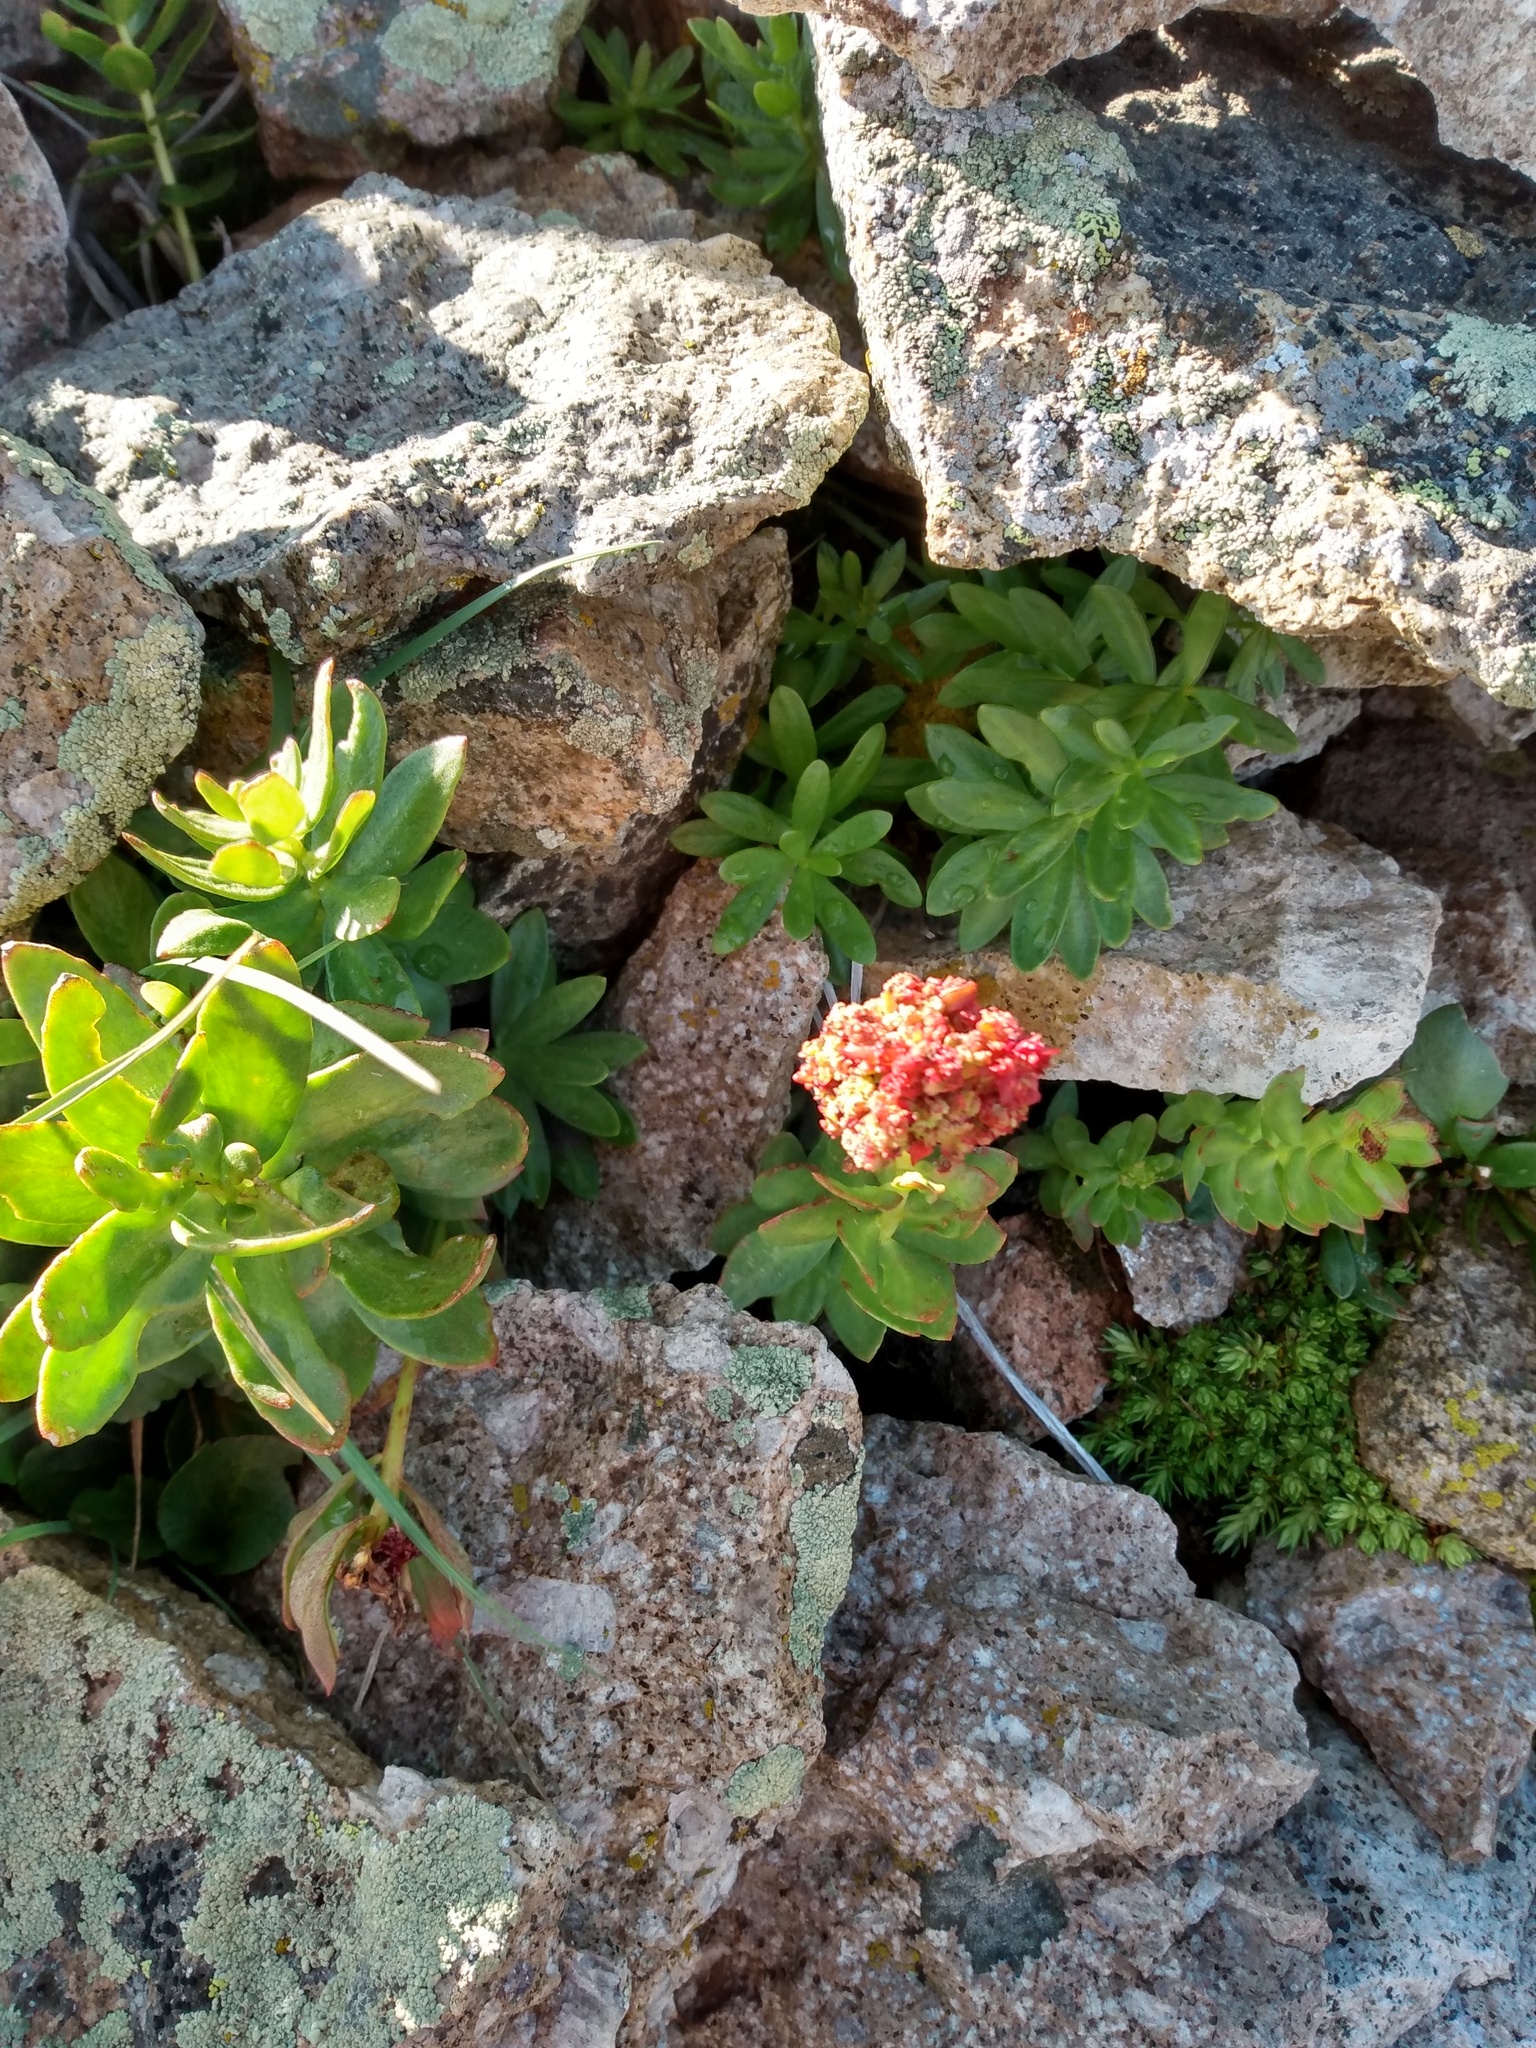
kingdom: Plantae
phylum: Tracheophyta
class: Magnoliopsida
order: Saxifragales
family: Crassulaceae
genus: Rhodiola
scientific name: Rhodiola integrifolia
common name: Western roseroot
